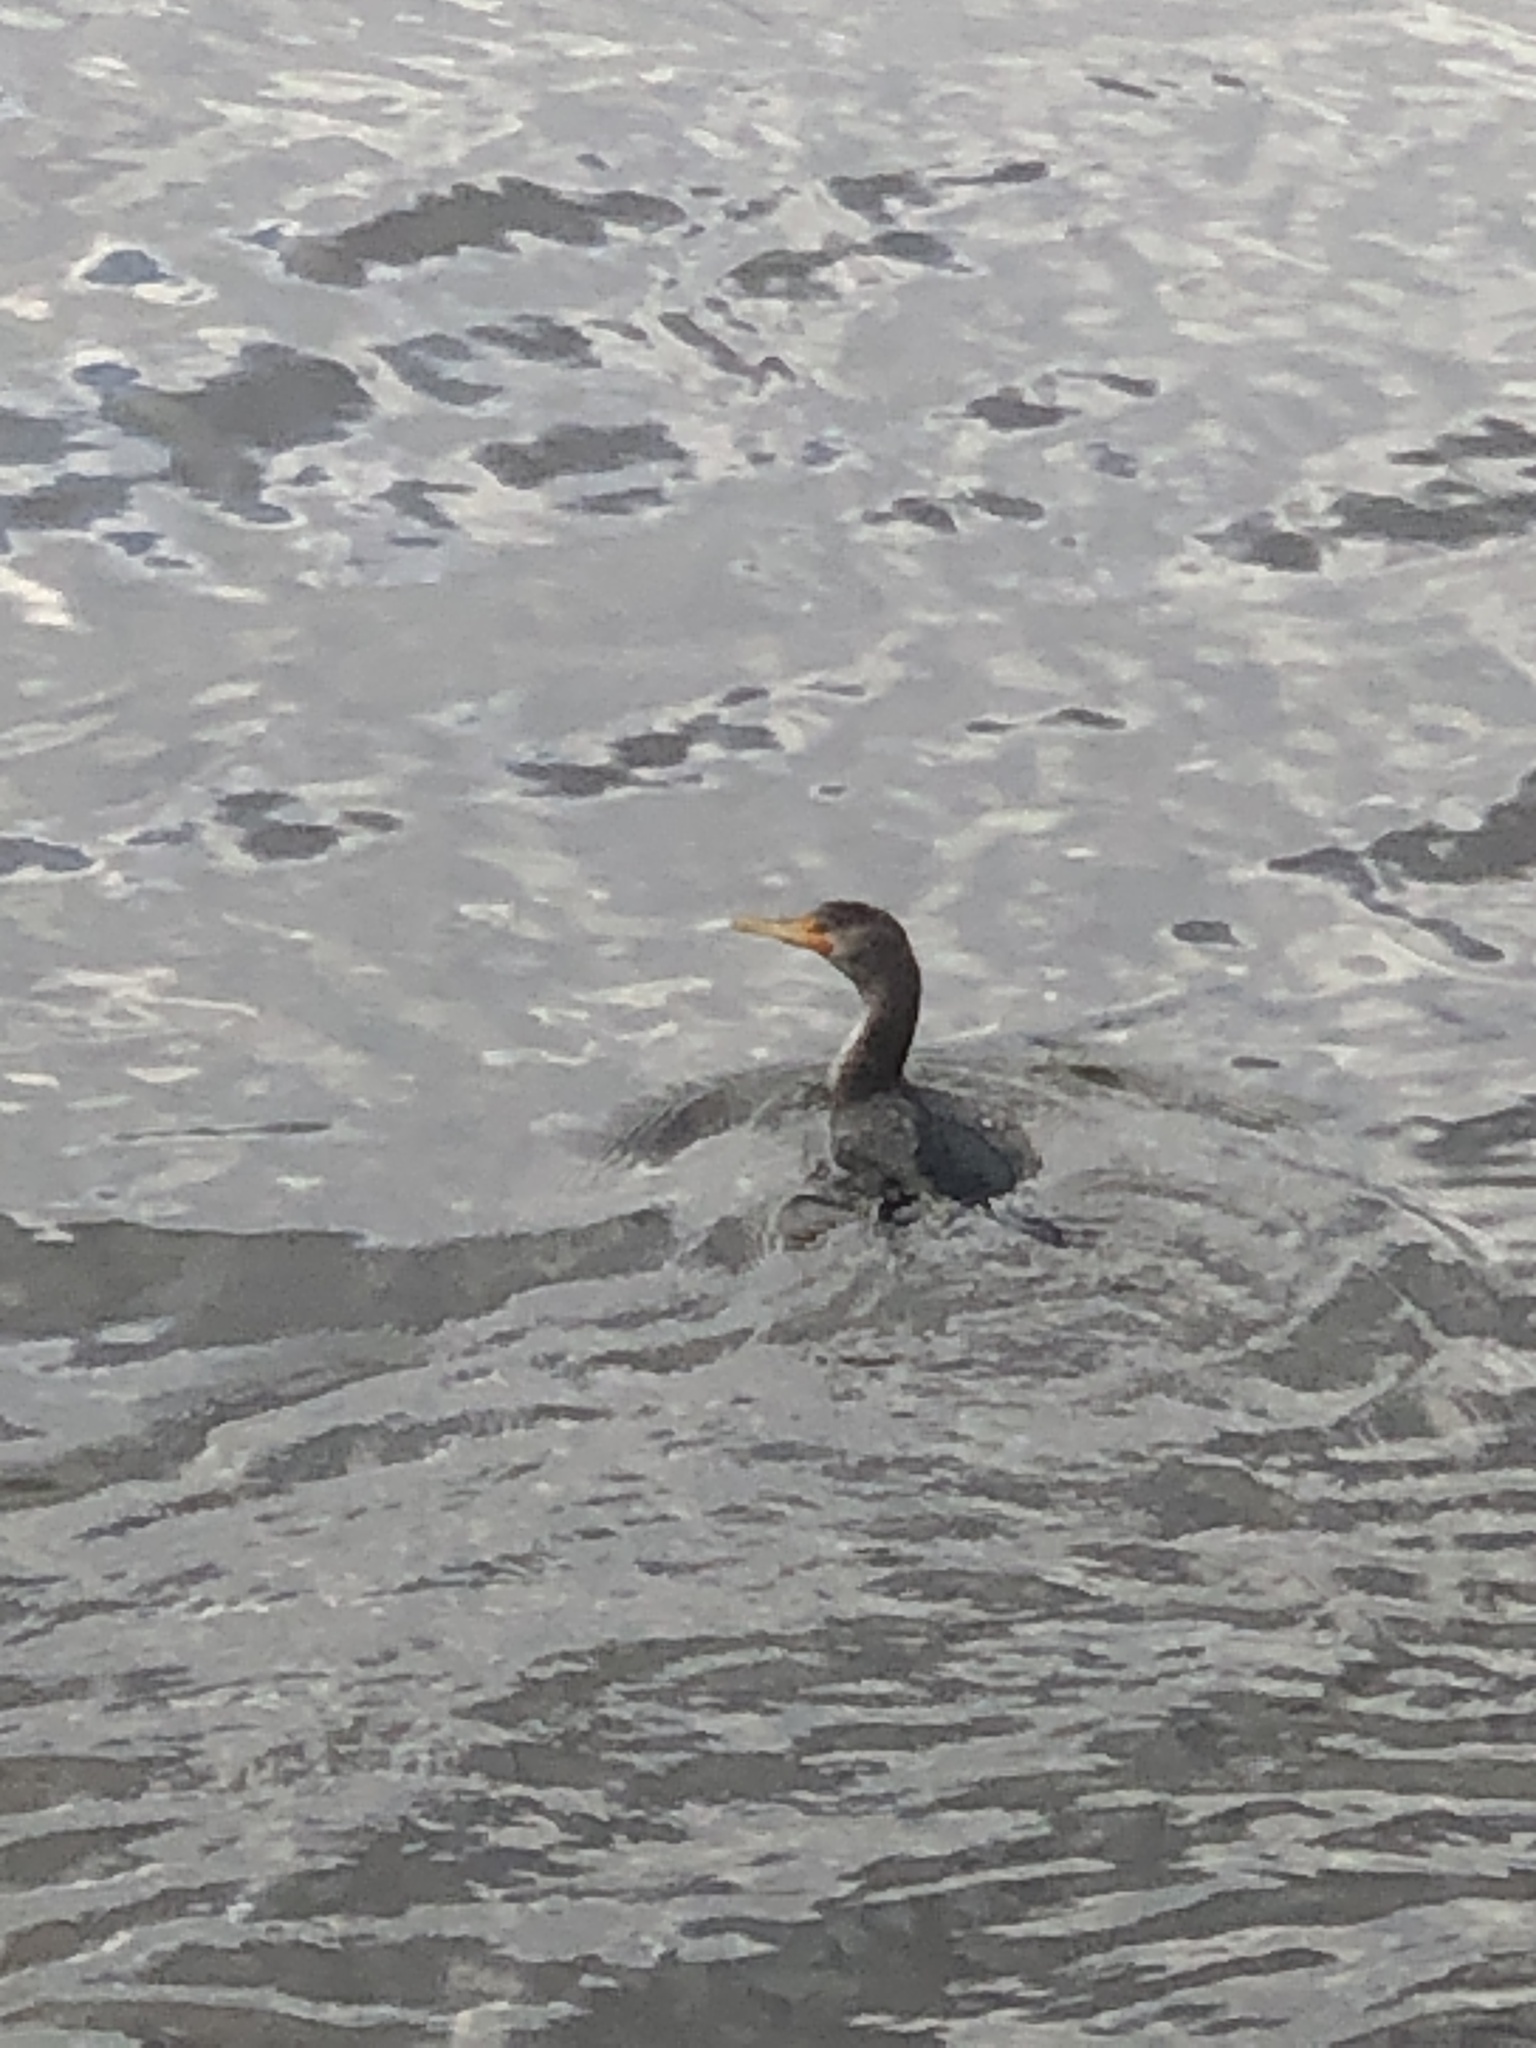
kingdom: Animalia
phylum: Chordata
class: Aves
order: Suliformes
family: Phalacrocoracidae
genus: Phalacrocorax
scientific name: Phalacrocorax auritus
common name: Double-crested cormorant
